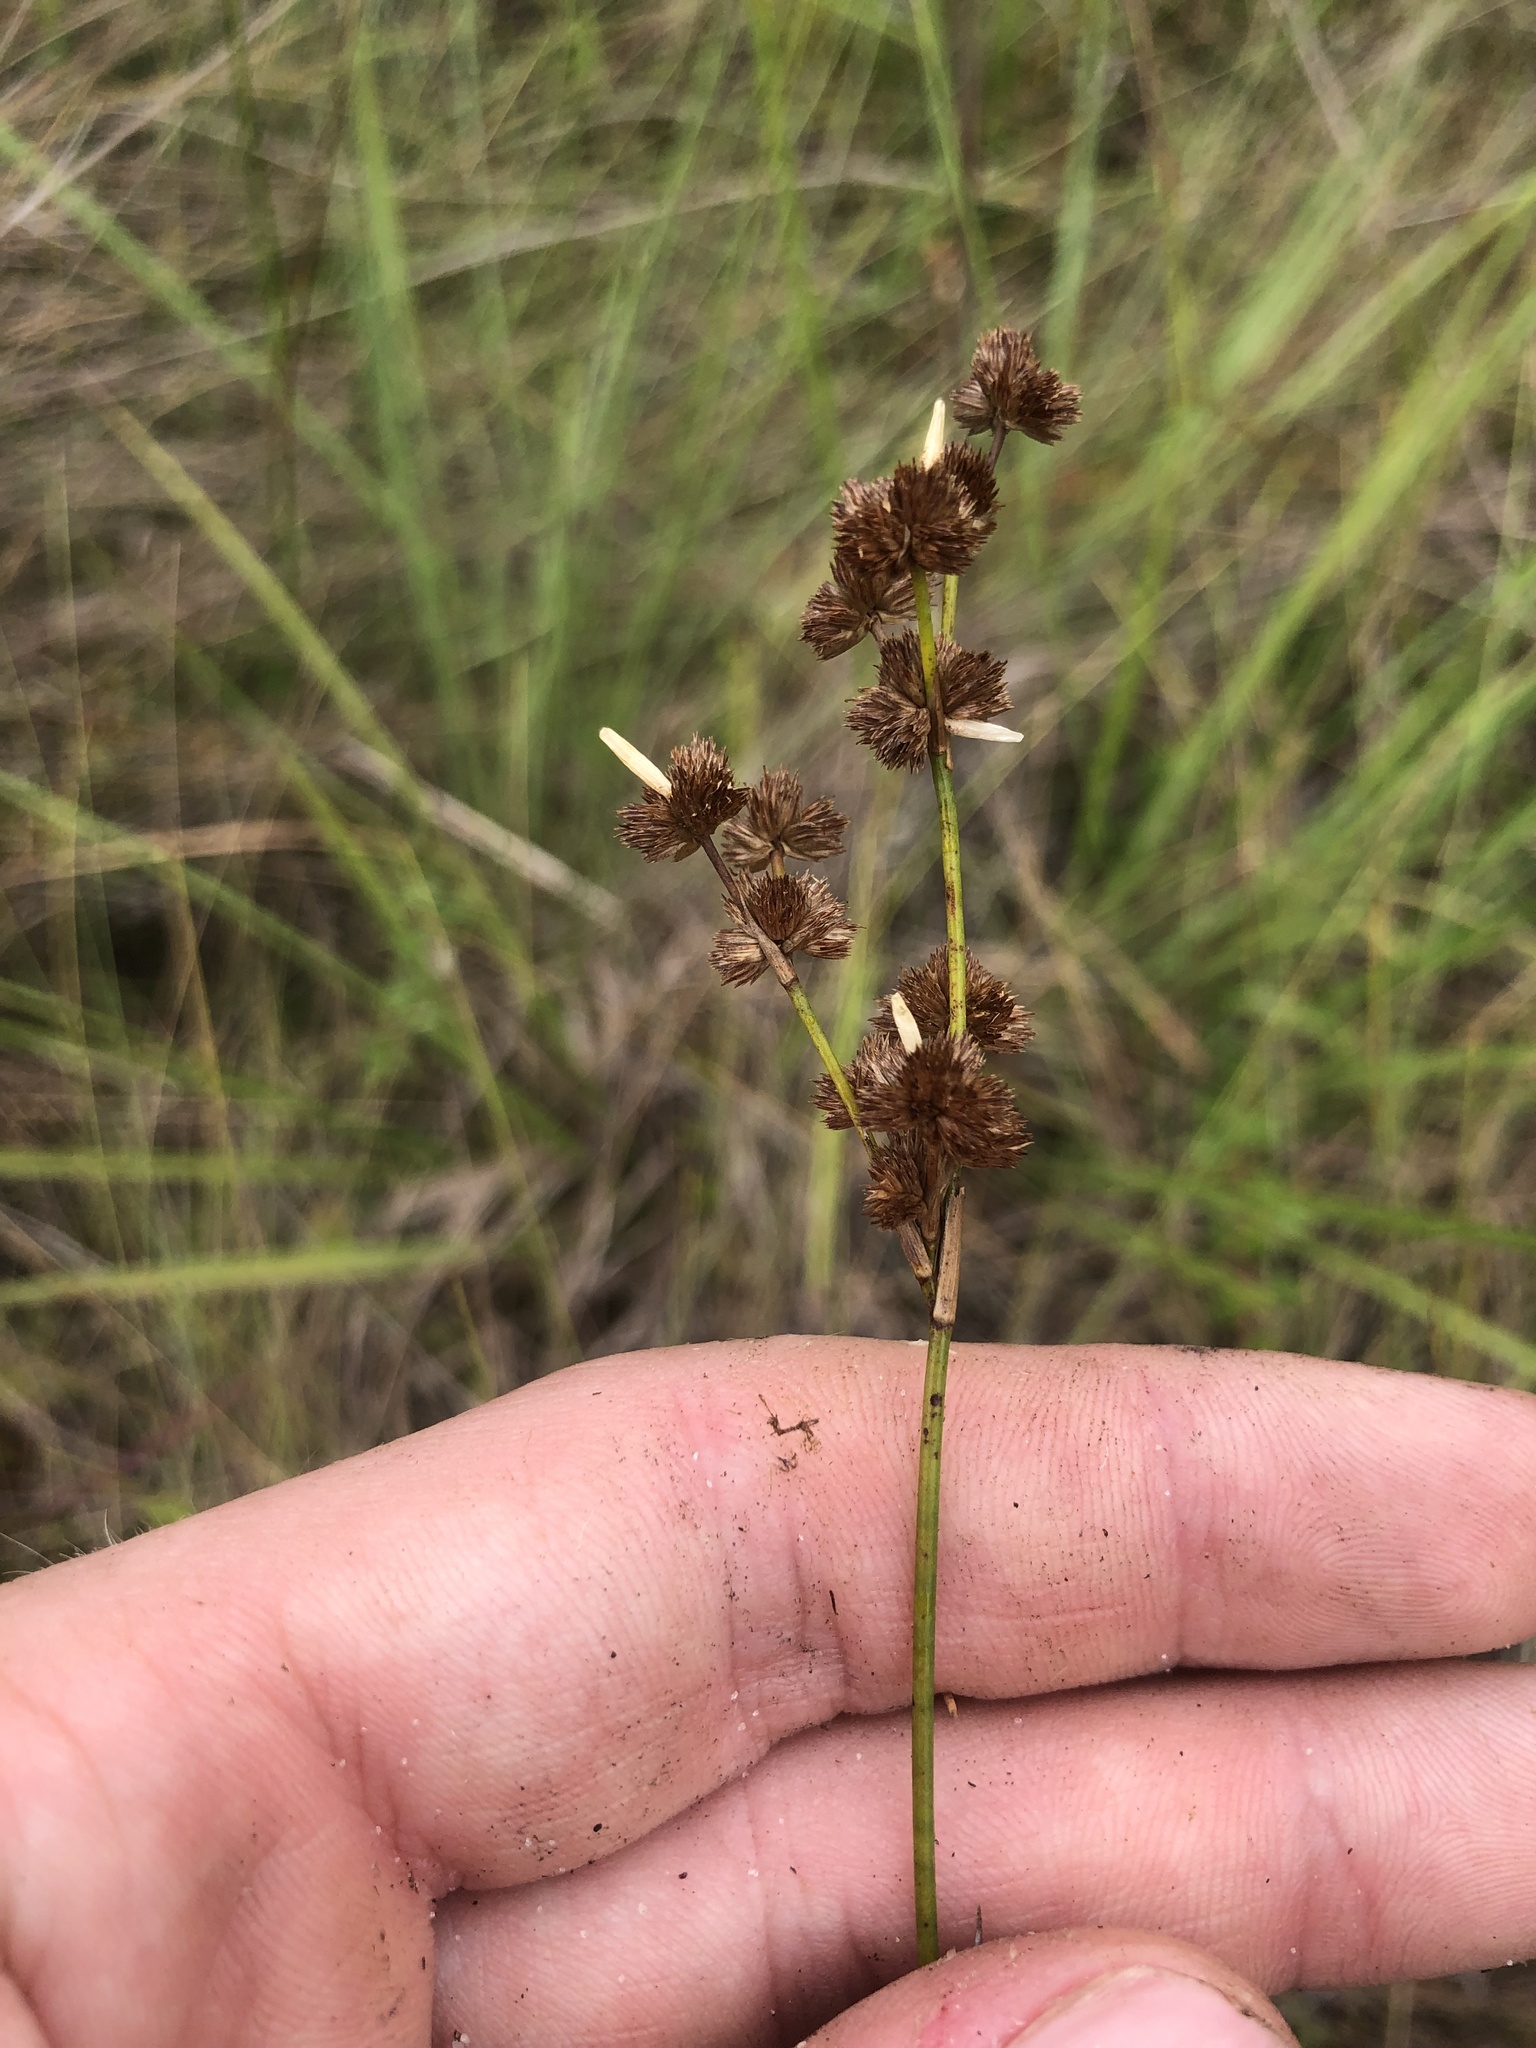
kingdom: Plantae
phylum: Tracheophyta
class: Liliopsida
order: Poales
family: Juncaceae
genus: Juncus
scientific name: Juncus scirpoides
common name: Needlepod rush
